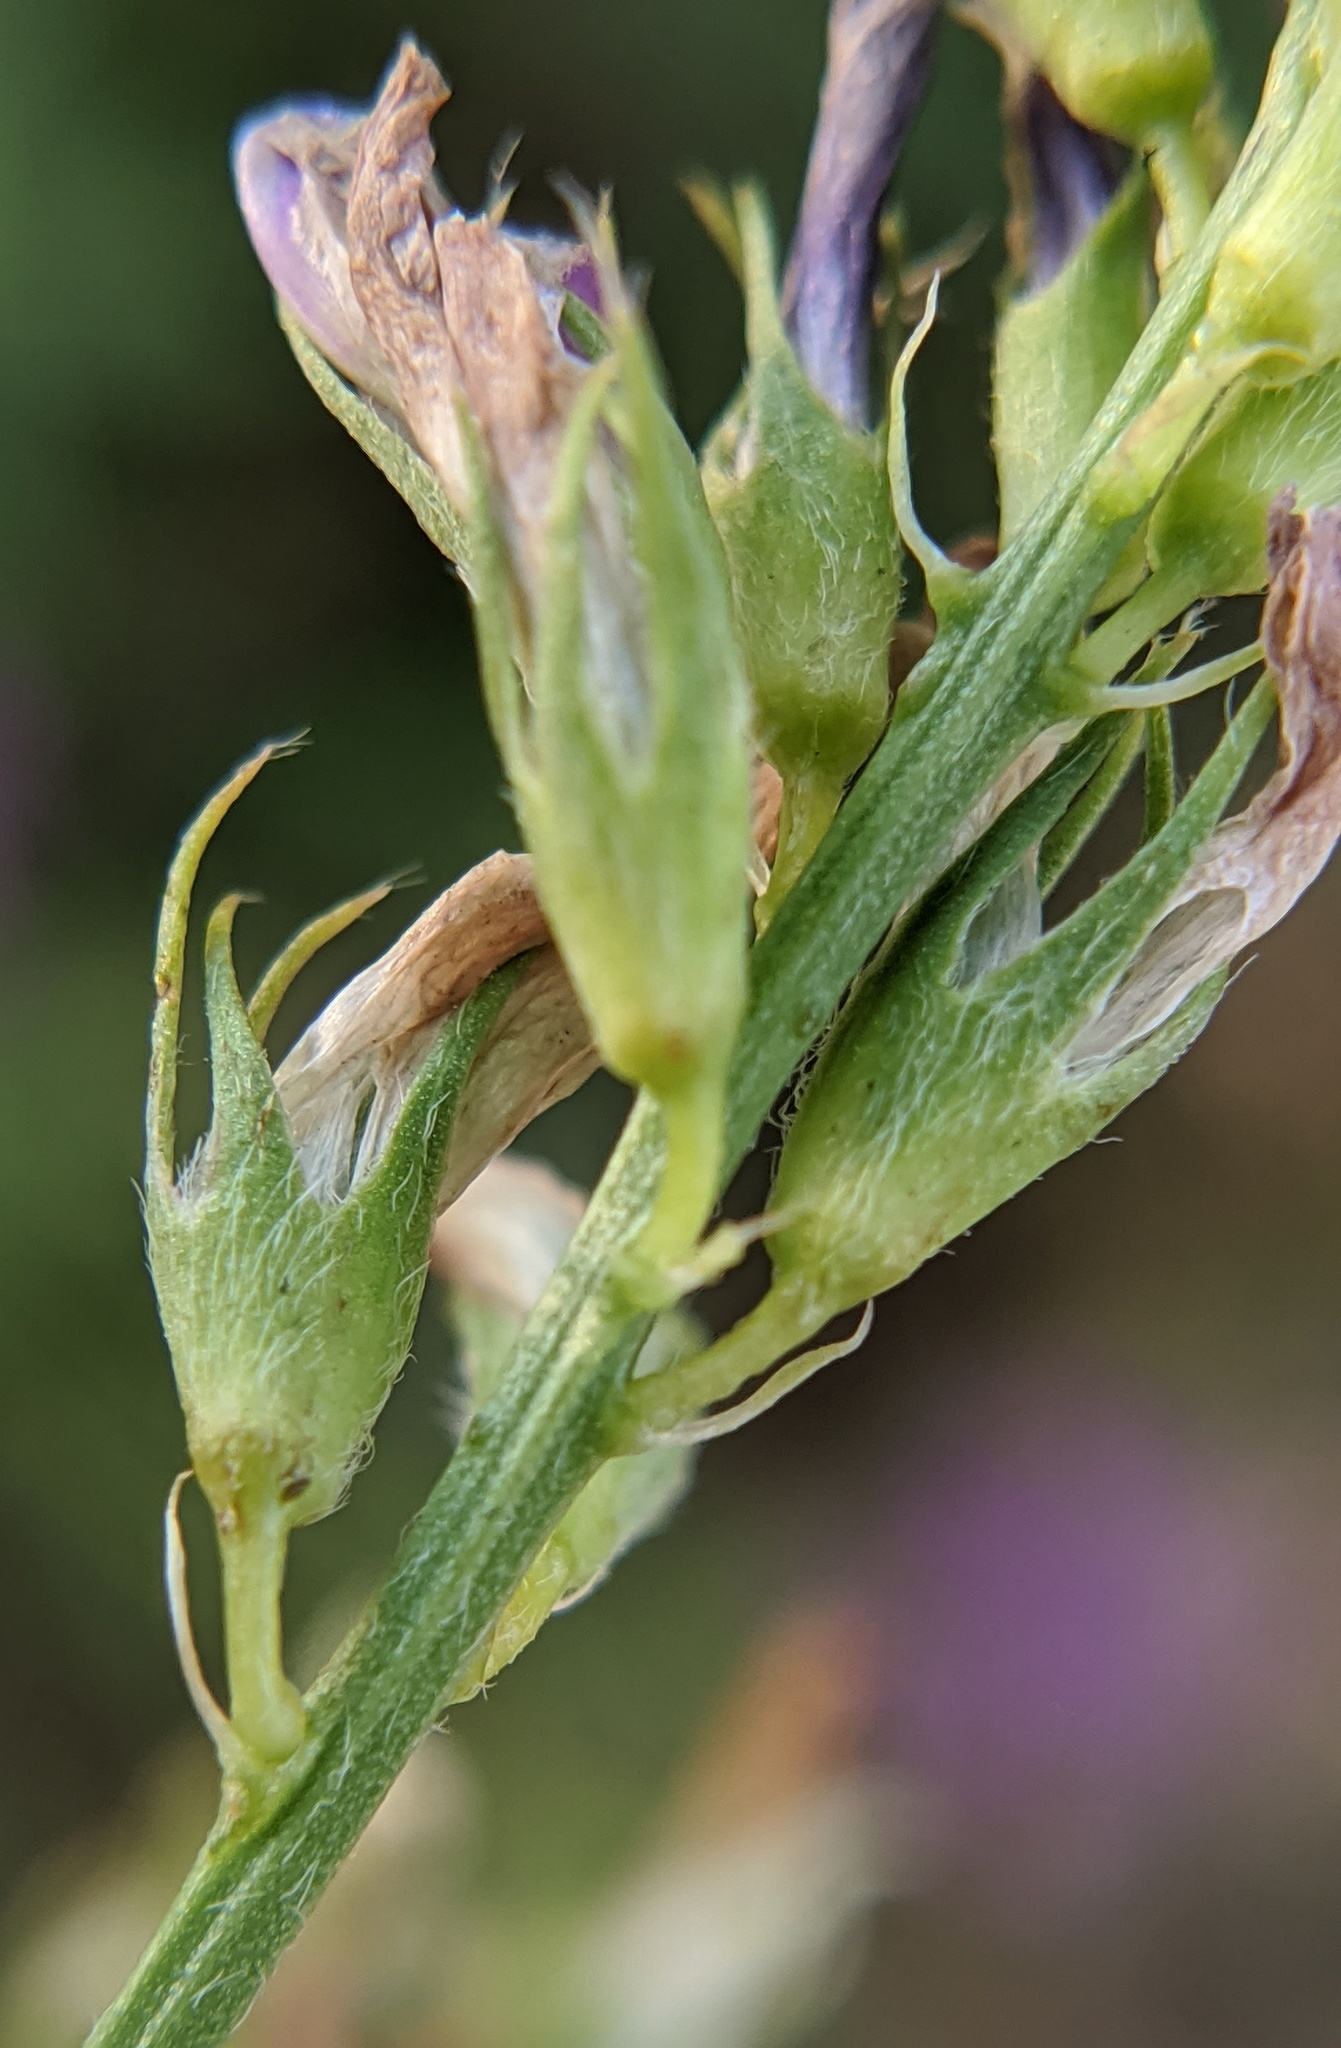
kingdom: Plantae
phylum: Tracheophyta
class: Magnoliopsida
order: Fabales
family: Fabaceae
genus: Medicago
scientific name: Medicago sativa
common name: Alfalfa
